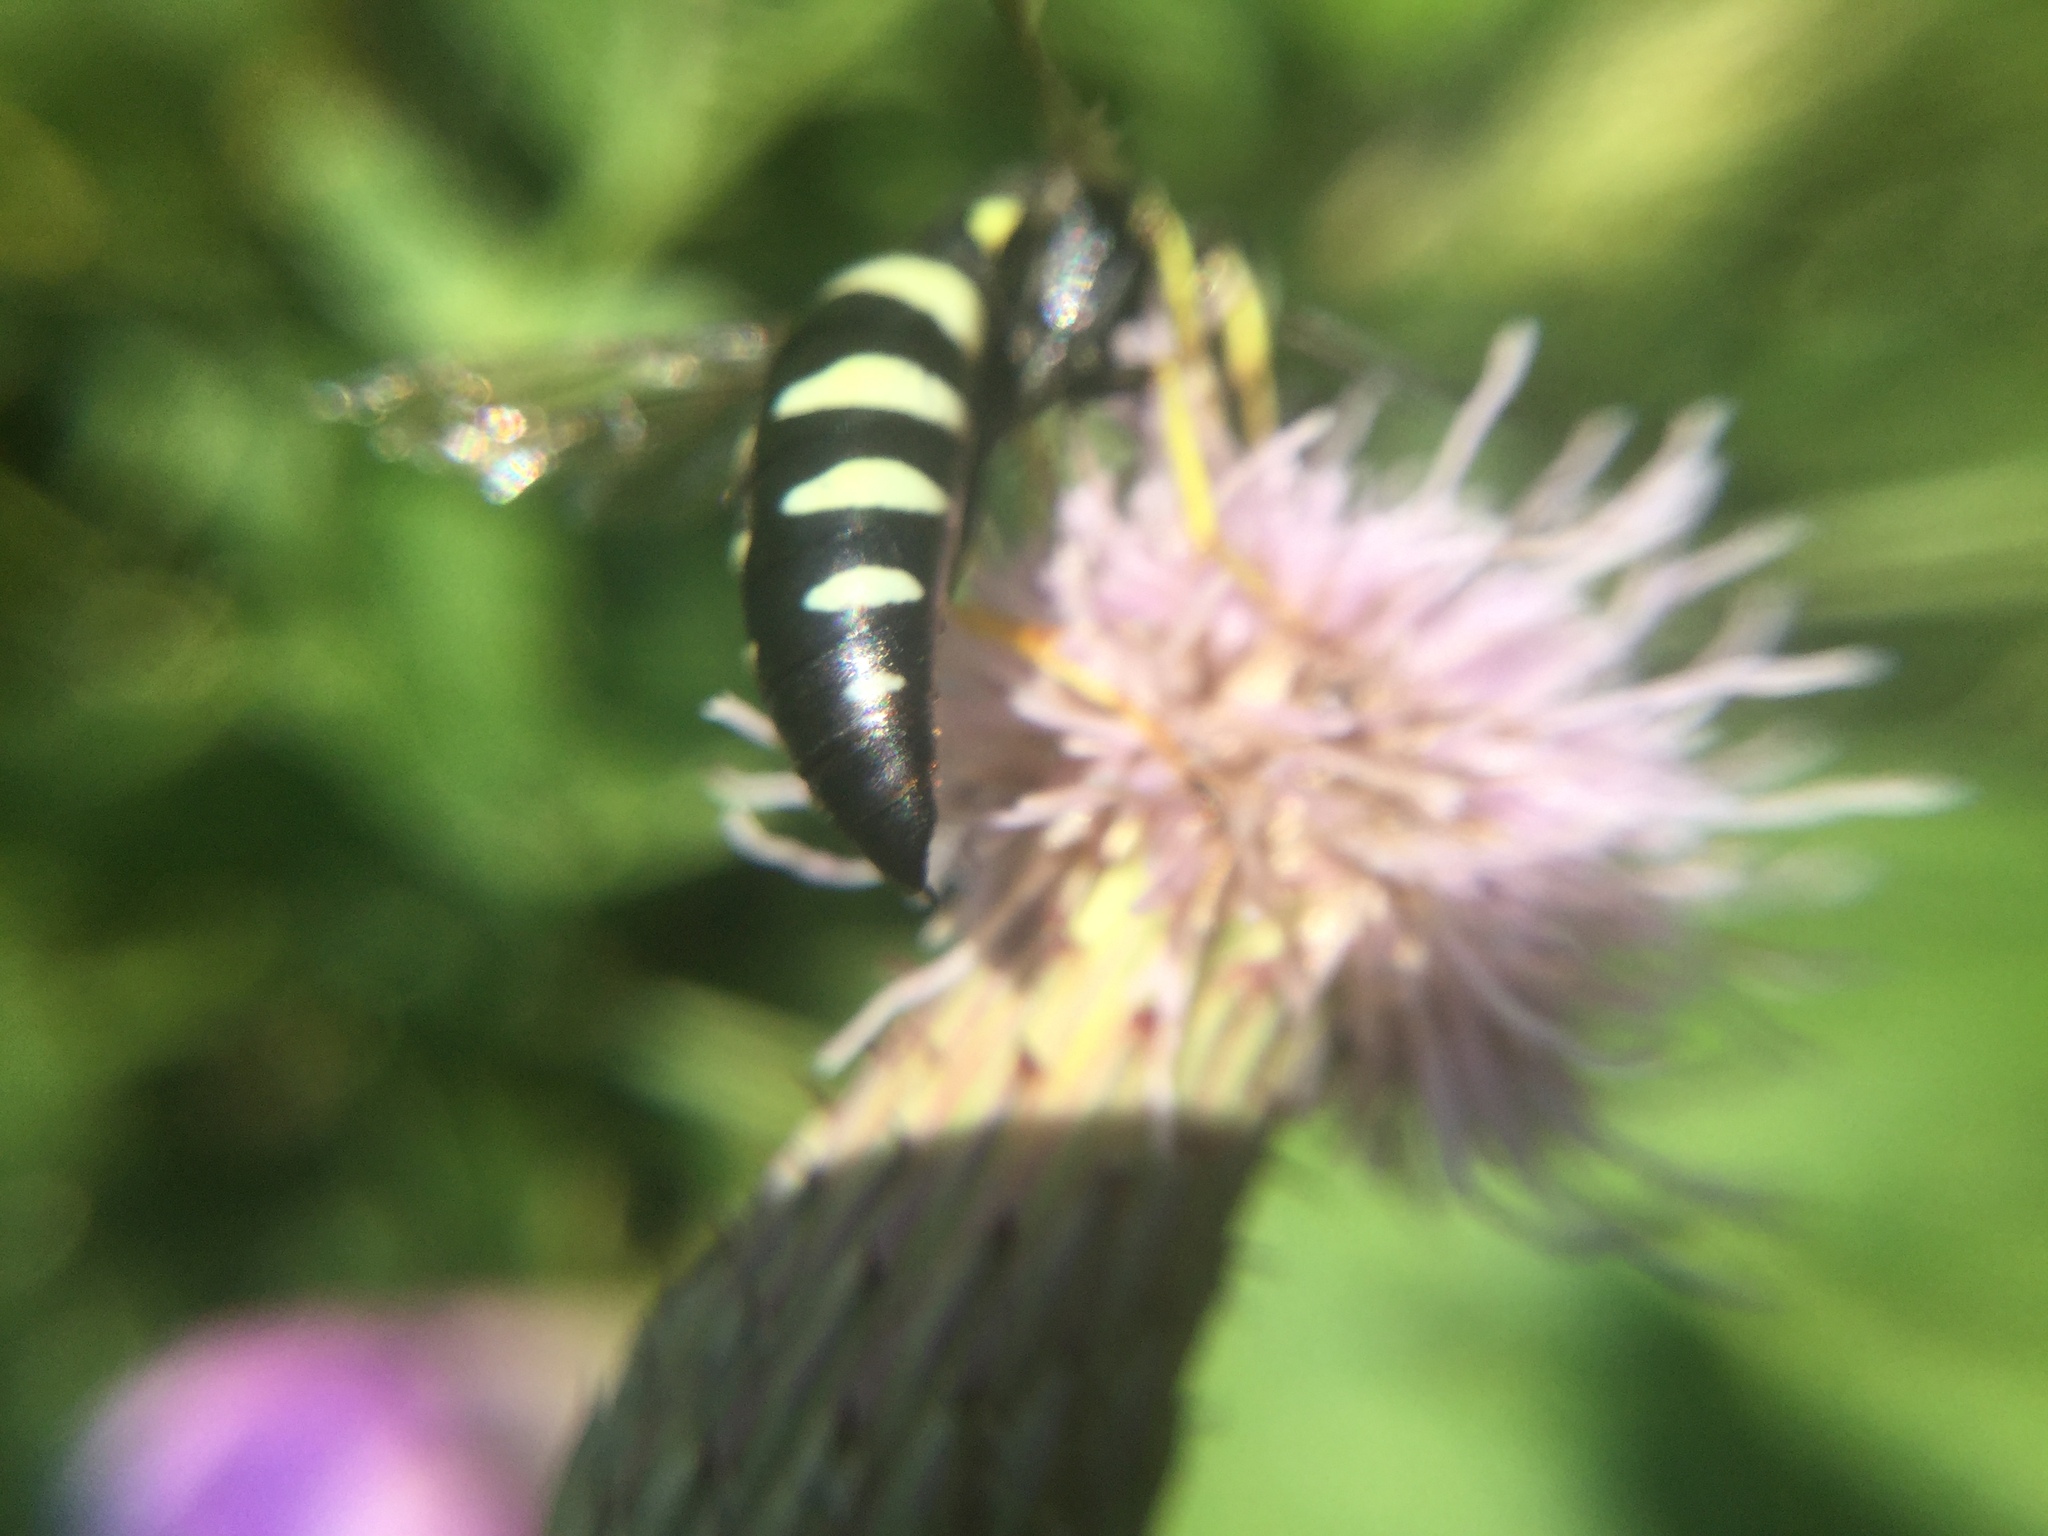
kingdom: Animalia
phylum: Arthropoda
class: Insecta
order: Hymenoptera
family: Crabronidae
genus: Bicyrtes
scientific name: Bicyrtes quadrifasciatus
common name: Four-banded stink bug hunter wasp
